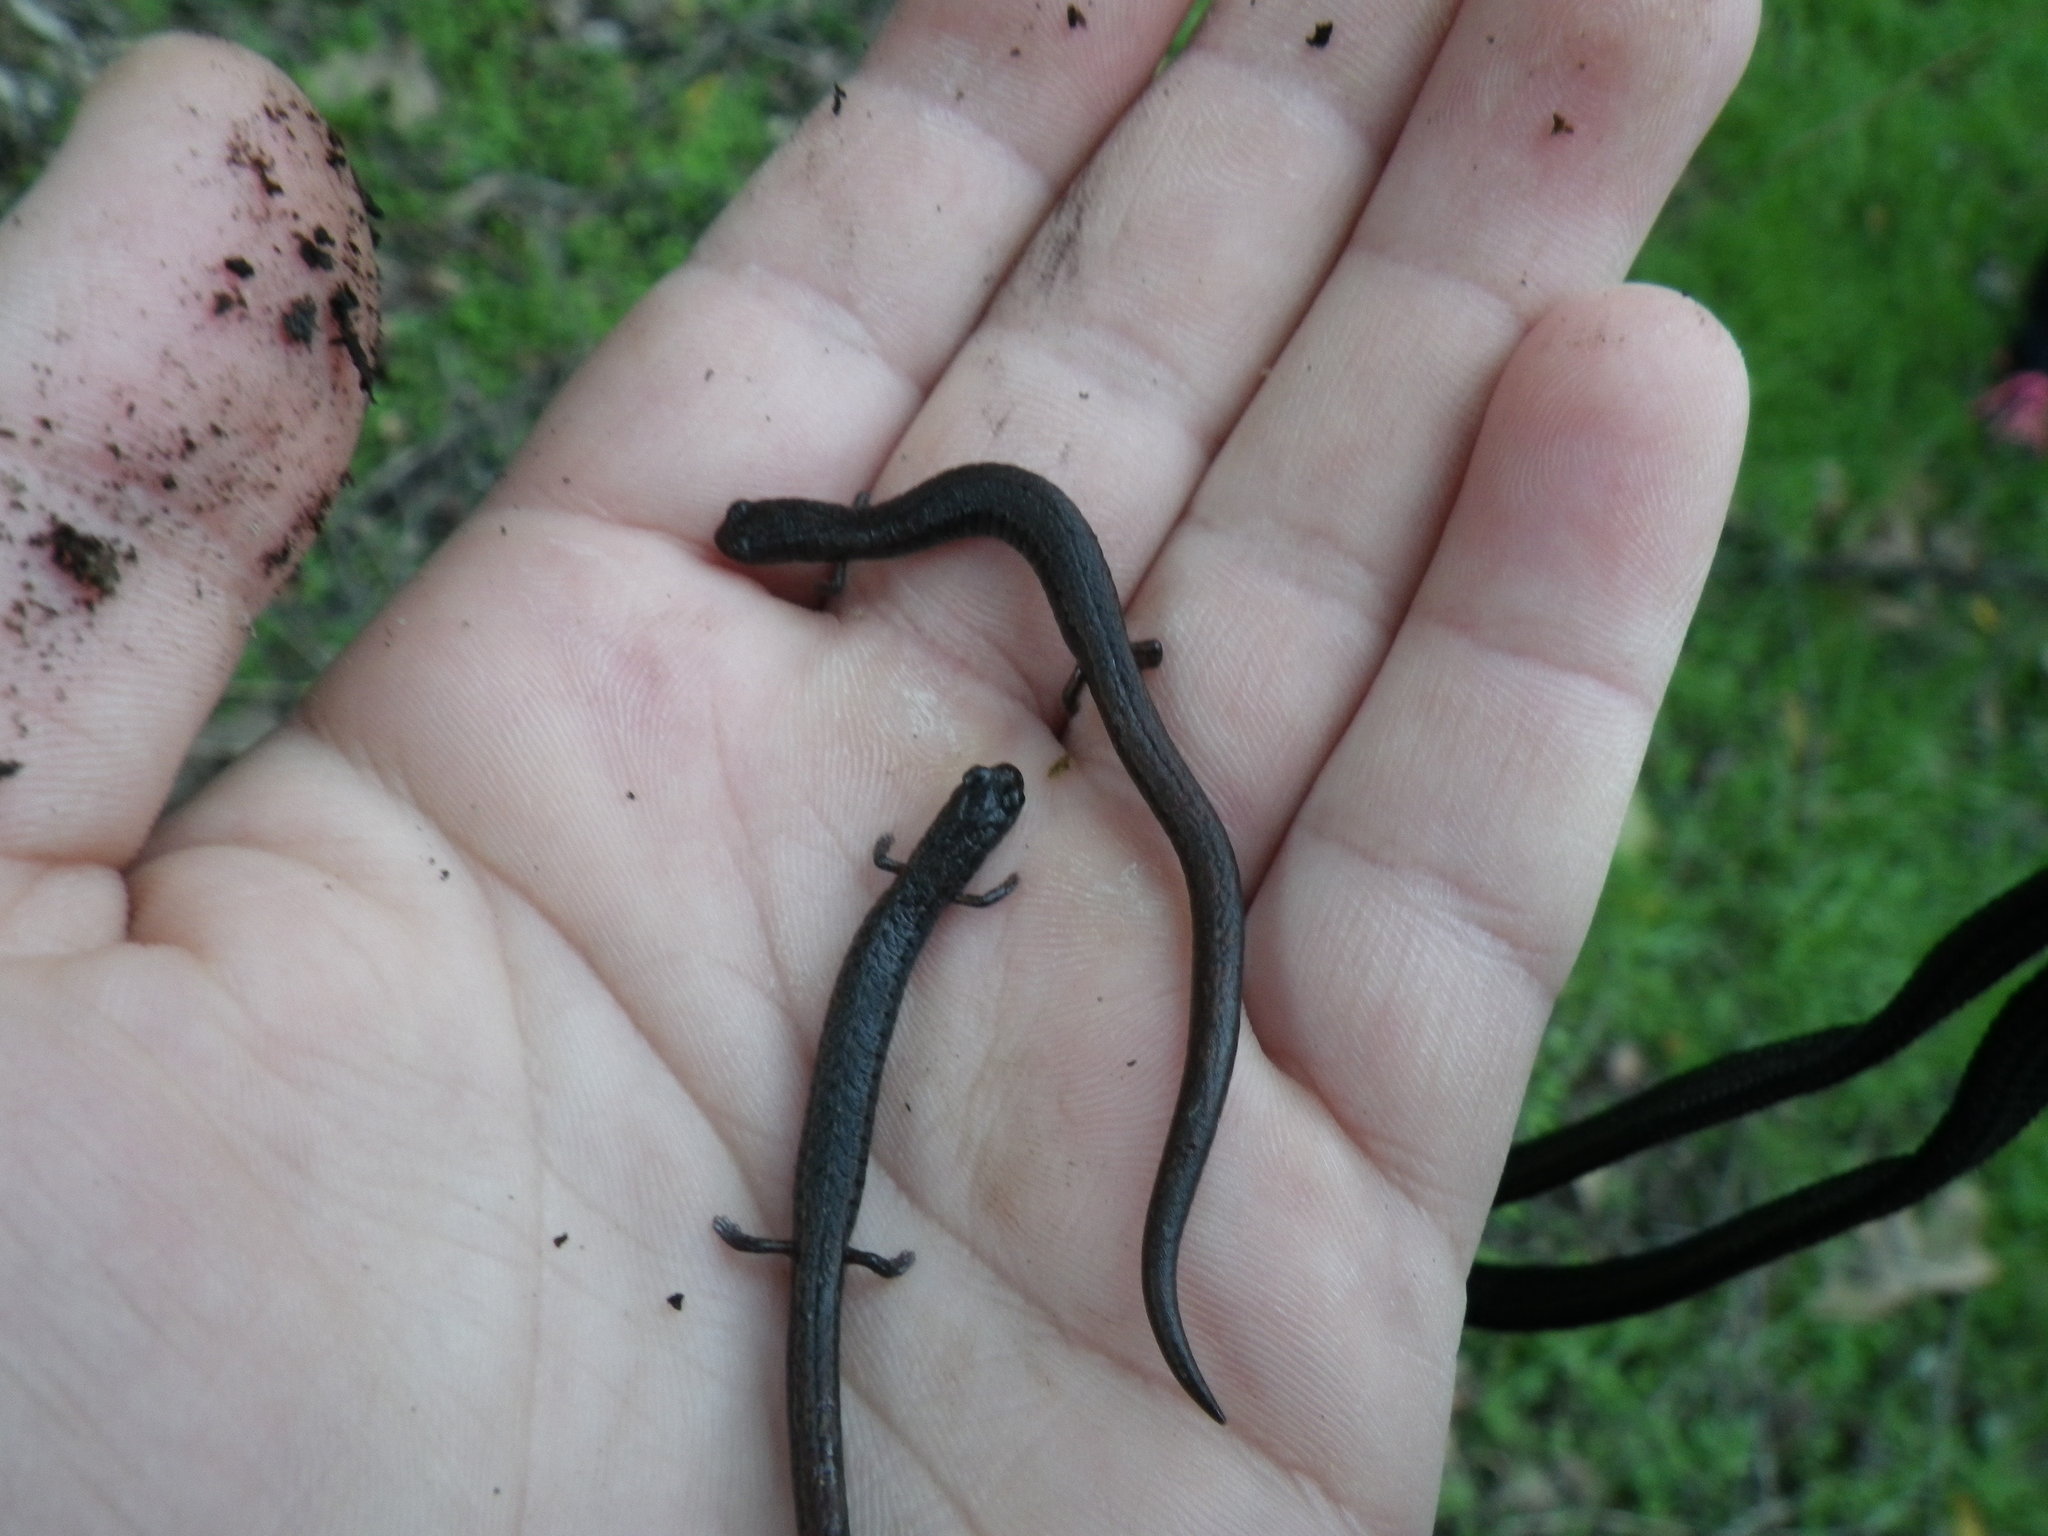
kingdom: Animalia
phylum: Chordata
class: Amphibia
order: Caudata
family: Plethodontidae
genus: Batrachoseps
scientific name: Batrachoseps attenuatus
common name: California slender salamander
